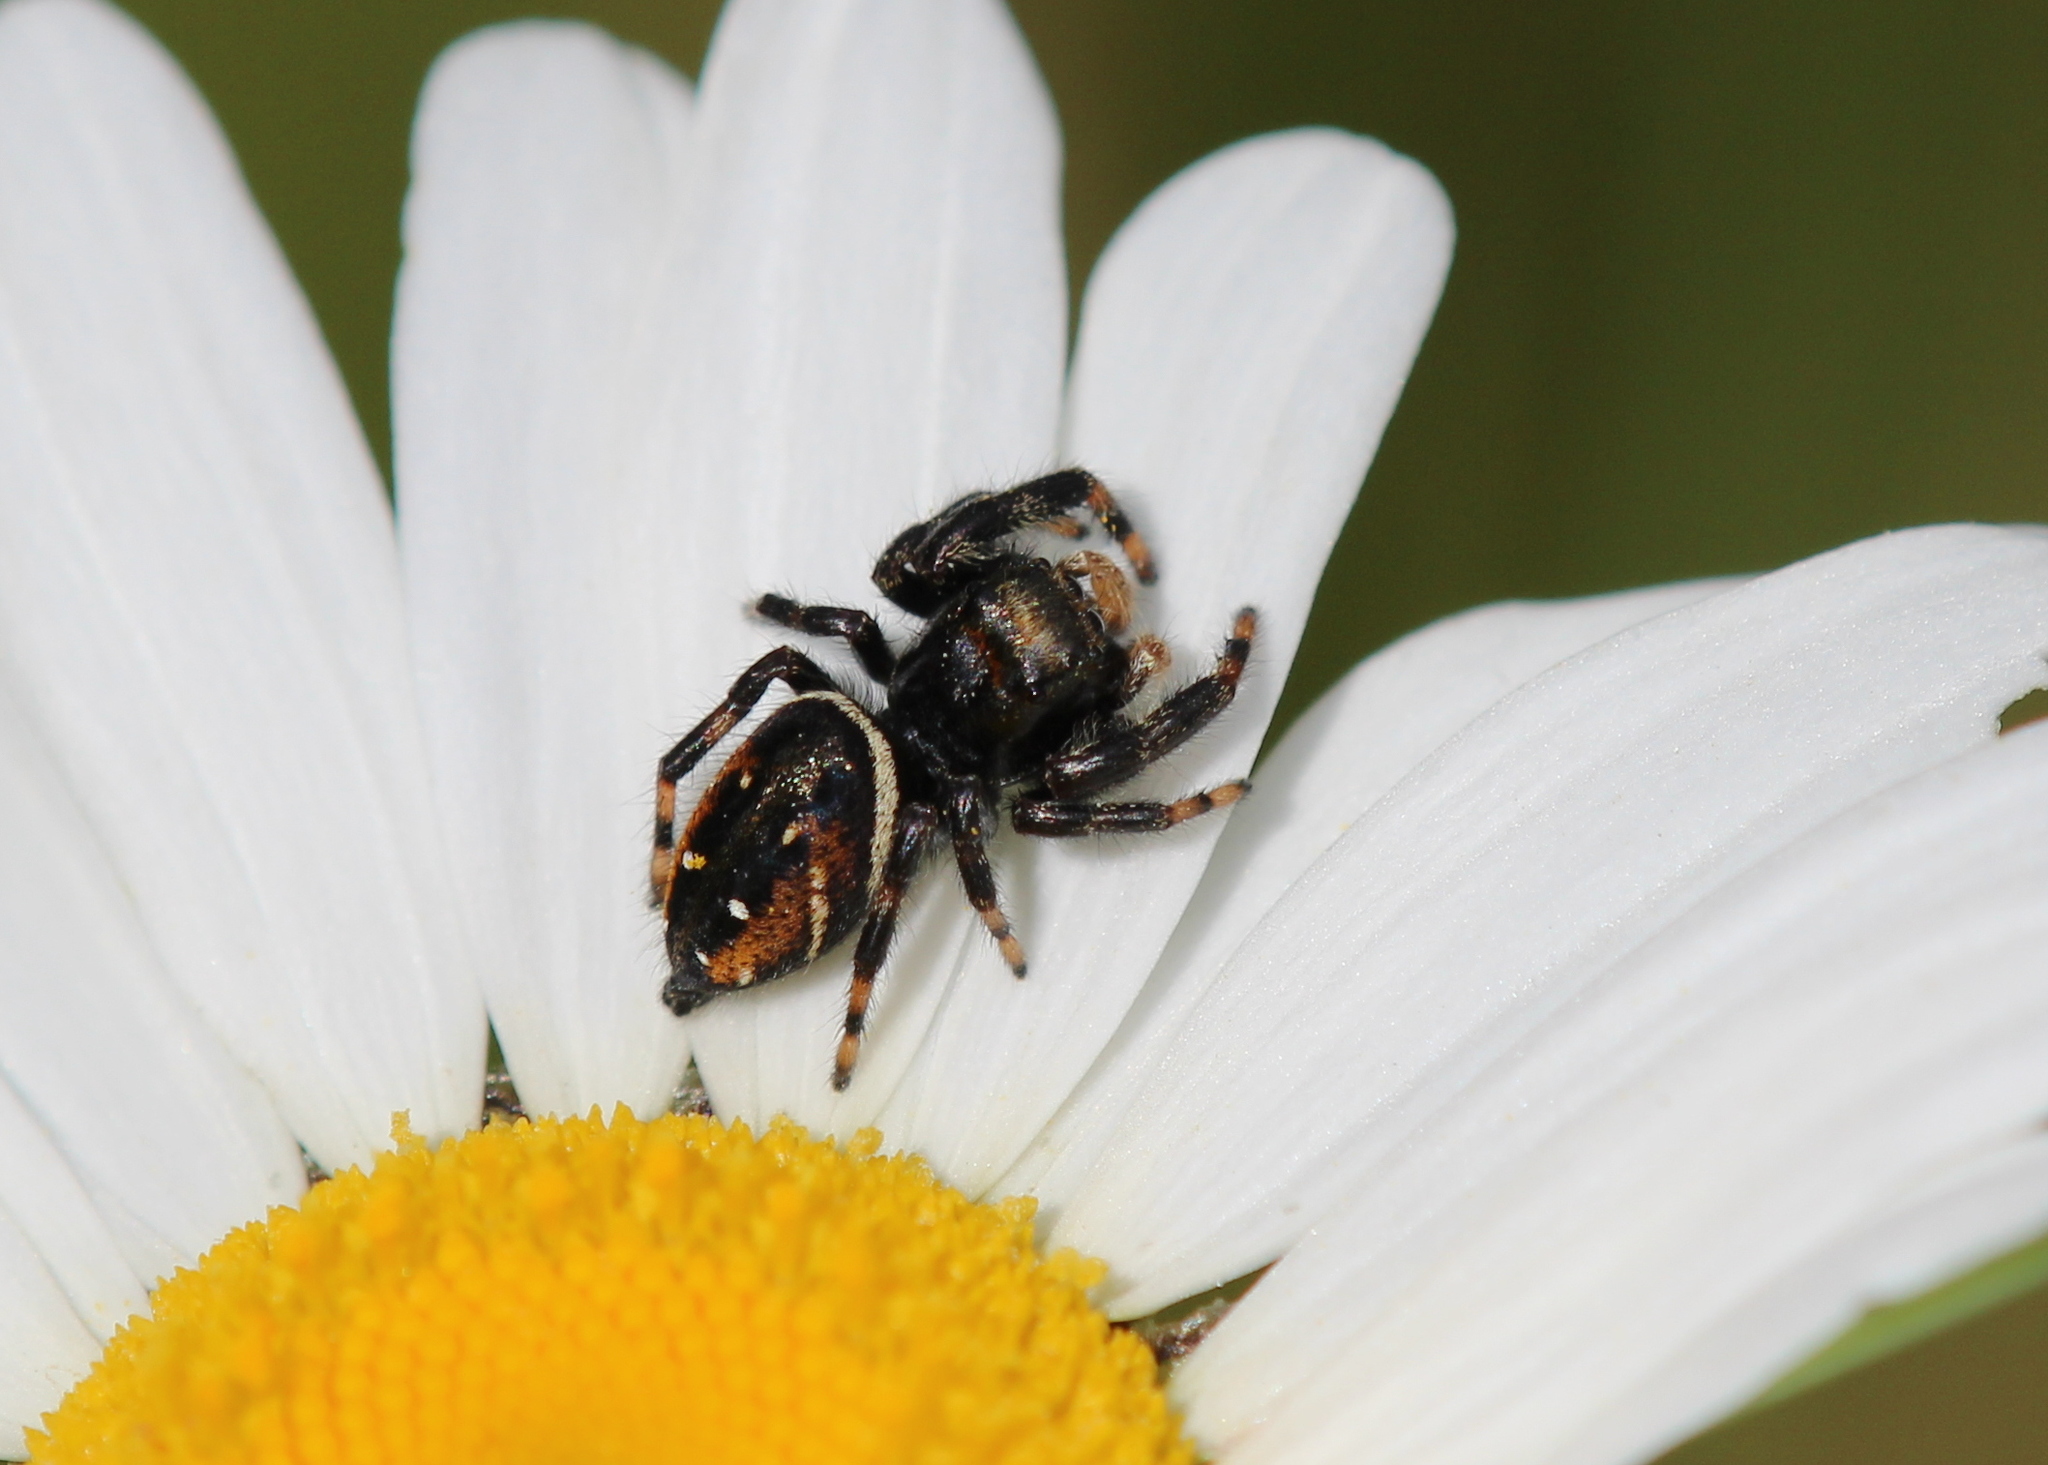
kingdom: Animalia
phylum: Arthropoda
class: Arachnida
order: Araneae
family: Salticidae
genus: Phidippus
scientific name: Phidippus clarus
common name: Brilliant jumping spider
